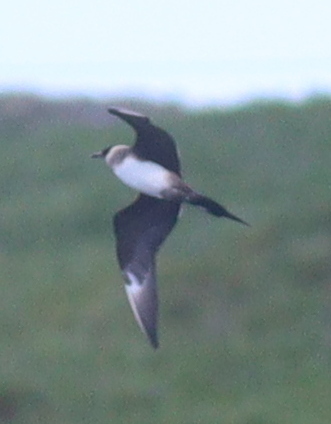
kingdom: Animalia
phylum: Chordata
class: Aves
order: Charadriiformes
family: Stercorariidae
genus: Stercorarius
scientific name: Stercorarius parasiticus
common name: Parasitic jaeger
